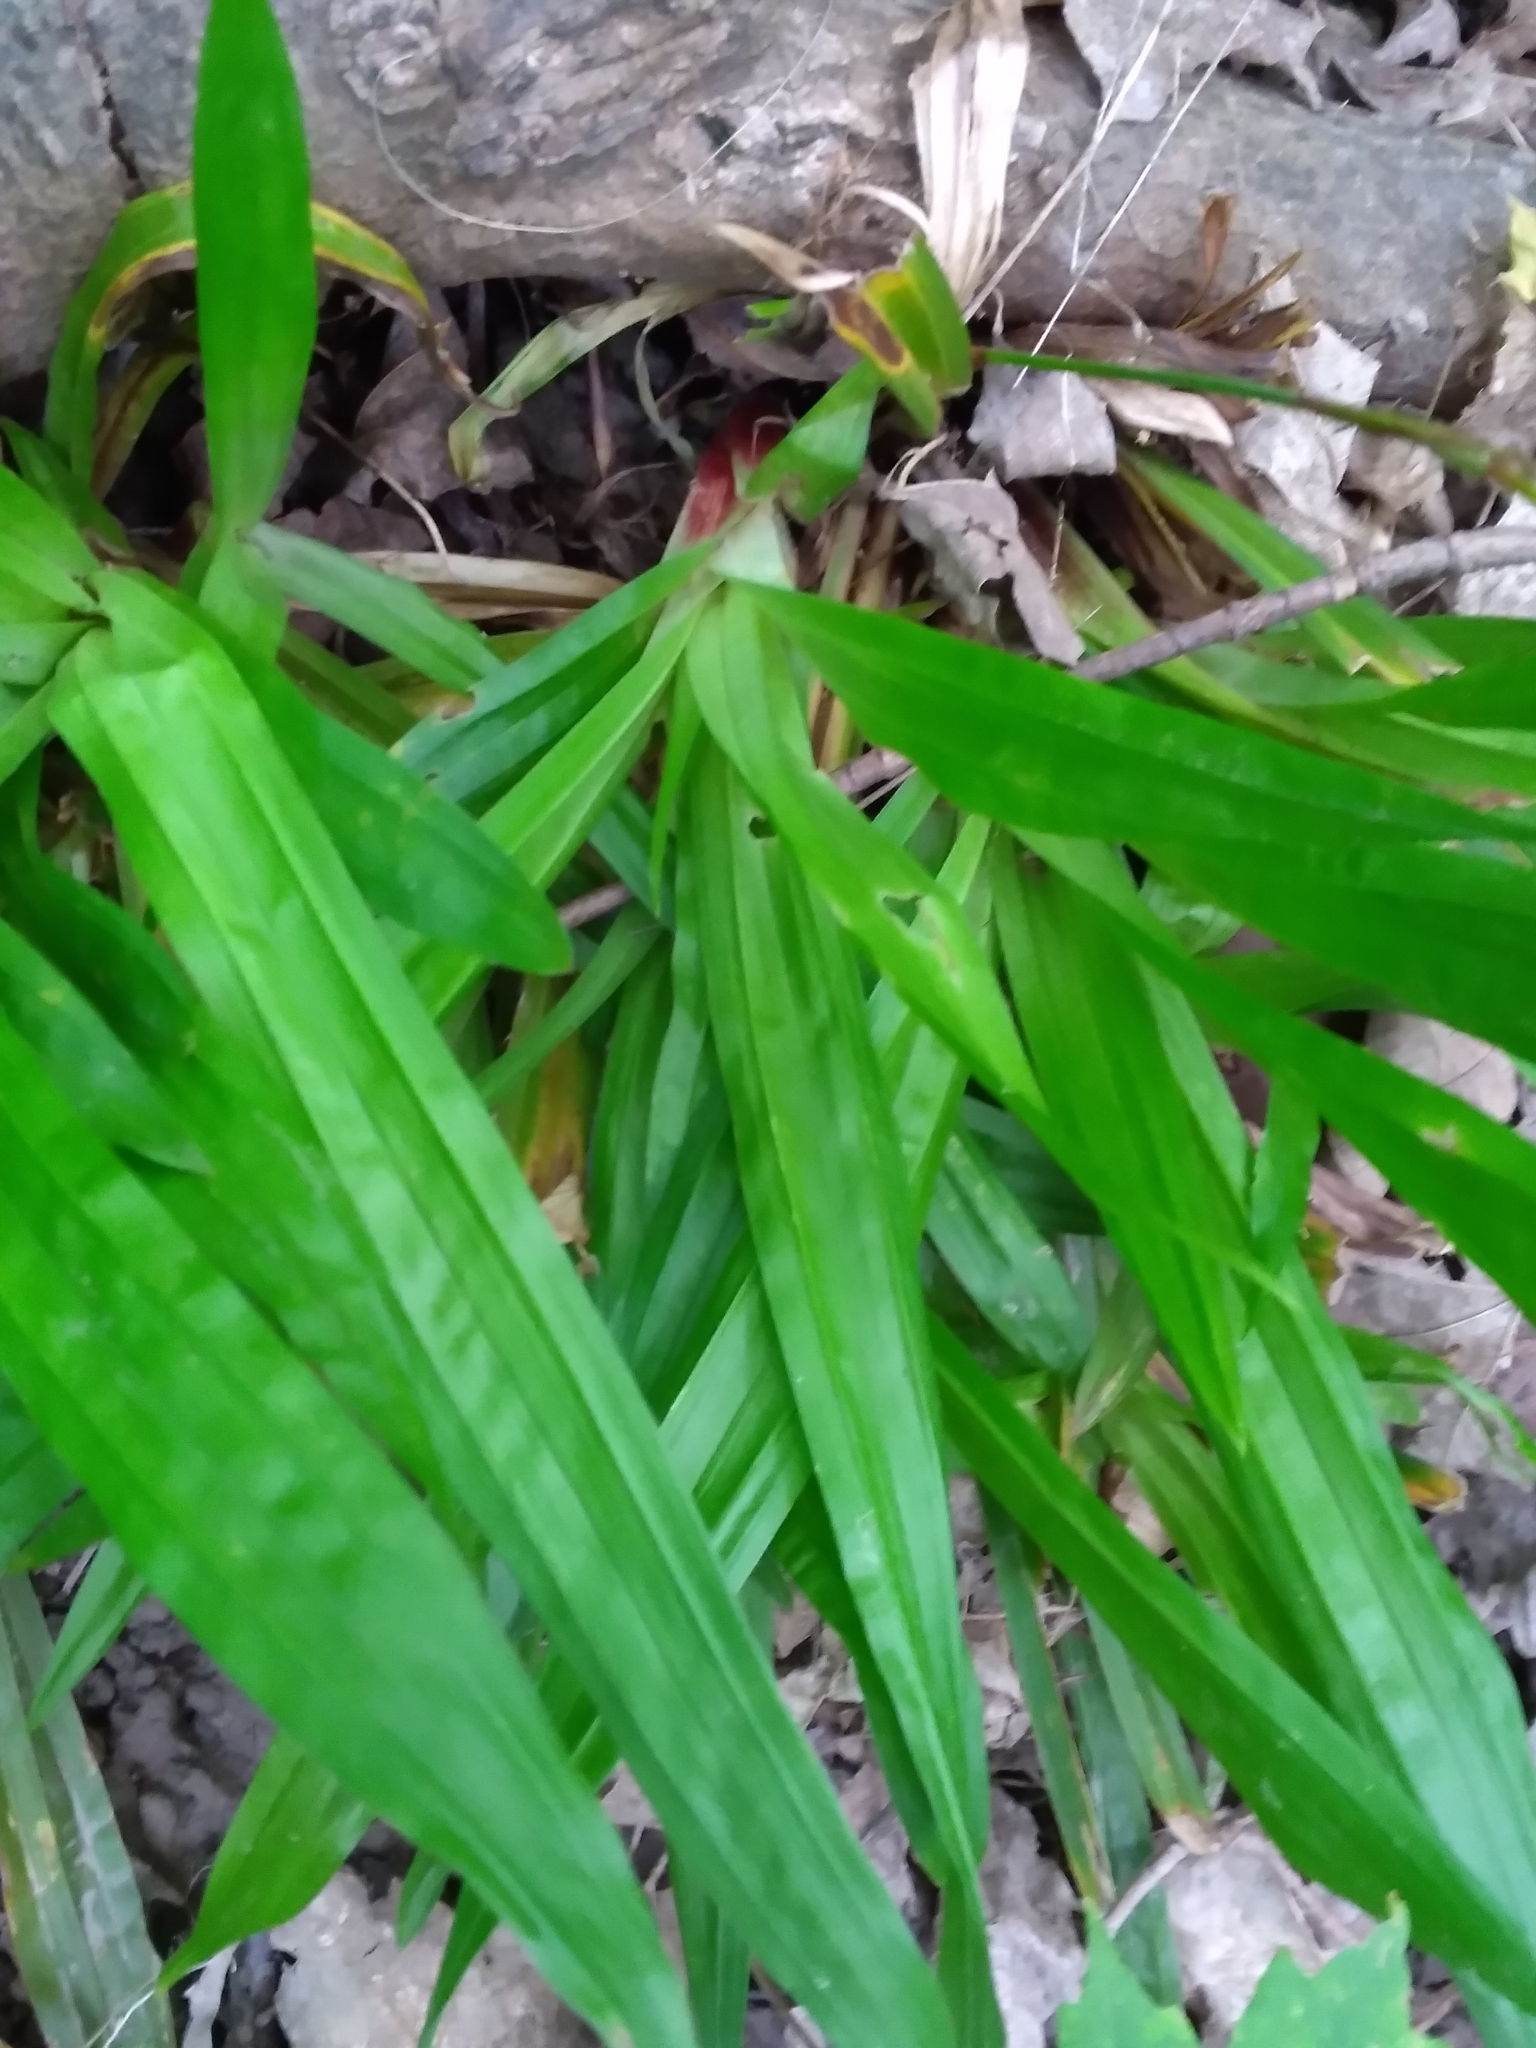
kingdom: Plantae
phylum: Tracheophyta
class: Liliopsida
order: Poales
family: Cyperaceae
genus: Carex
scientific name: Carex plantaginea
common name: Plantain-leaved sedge
